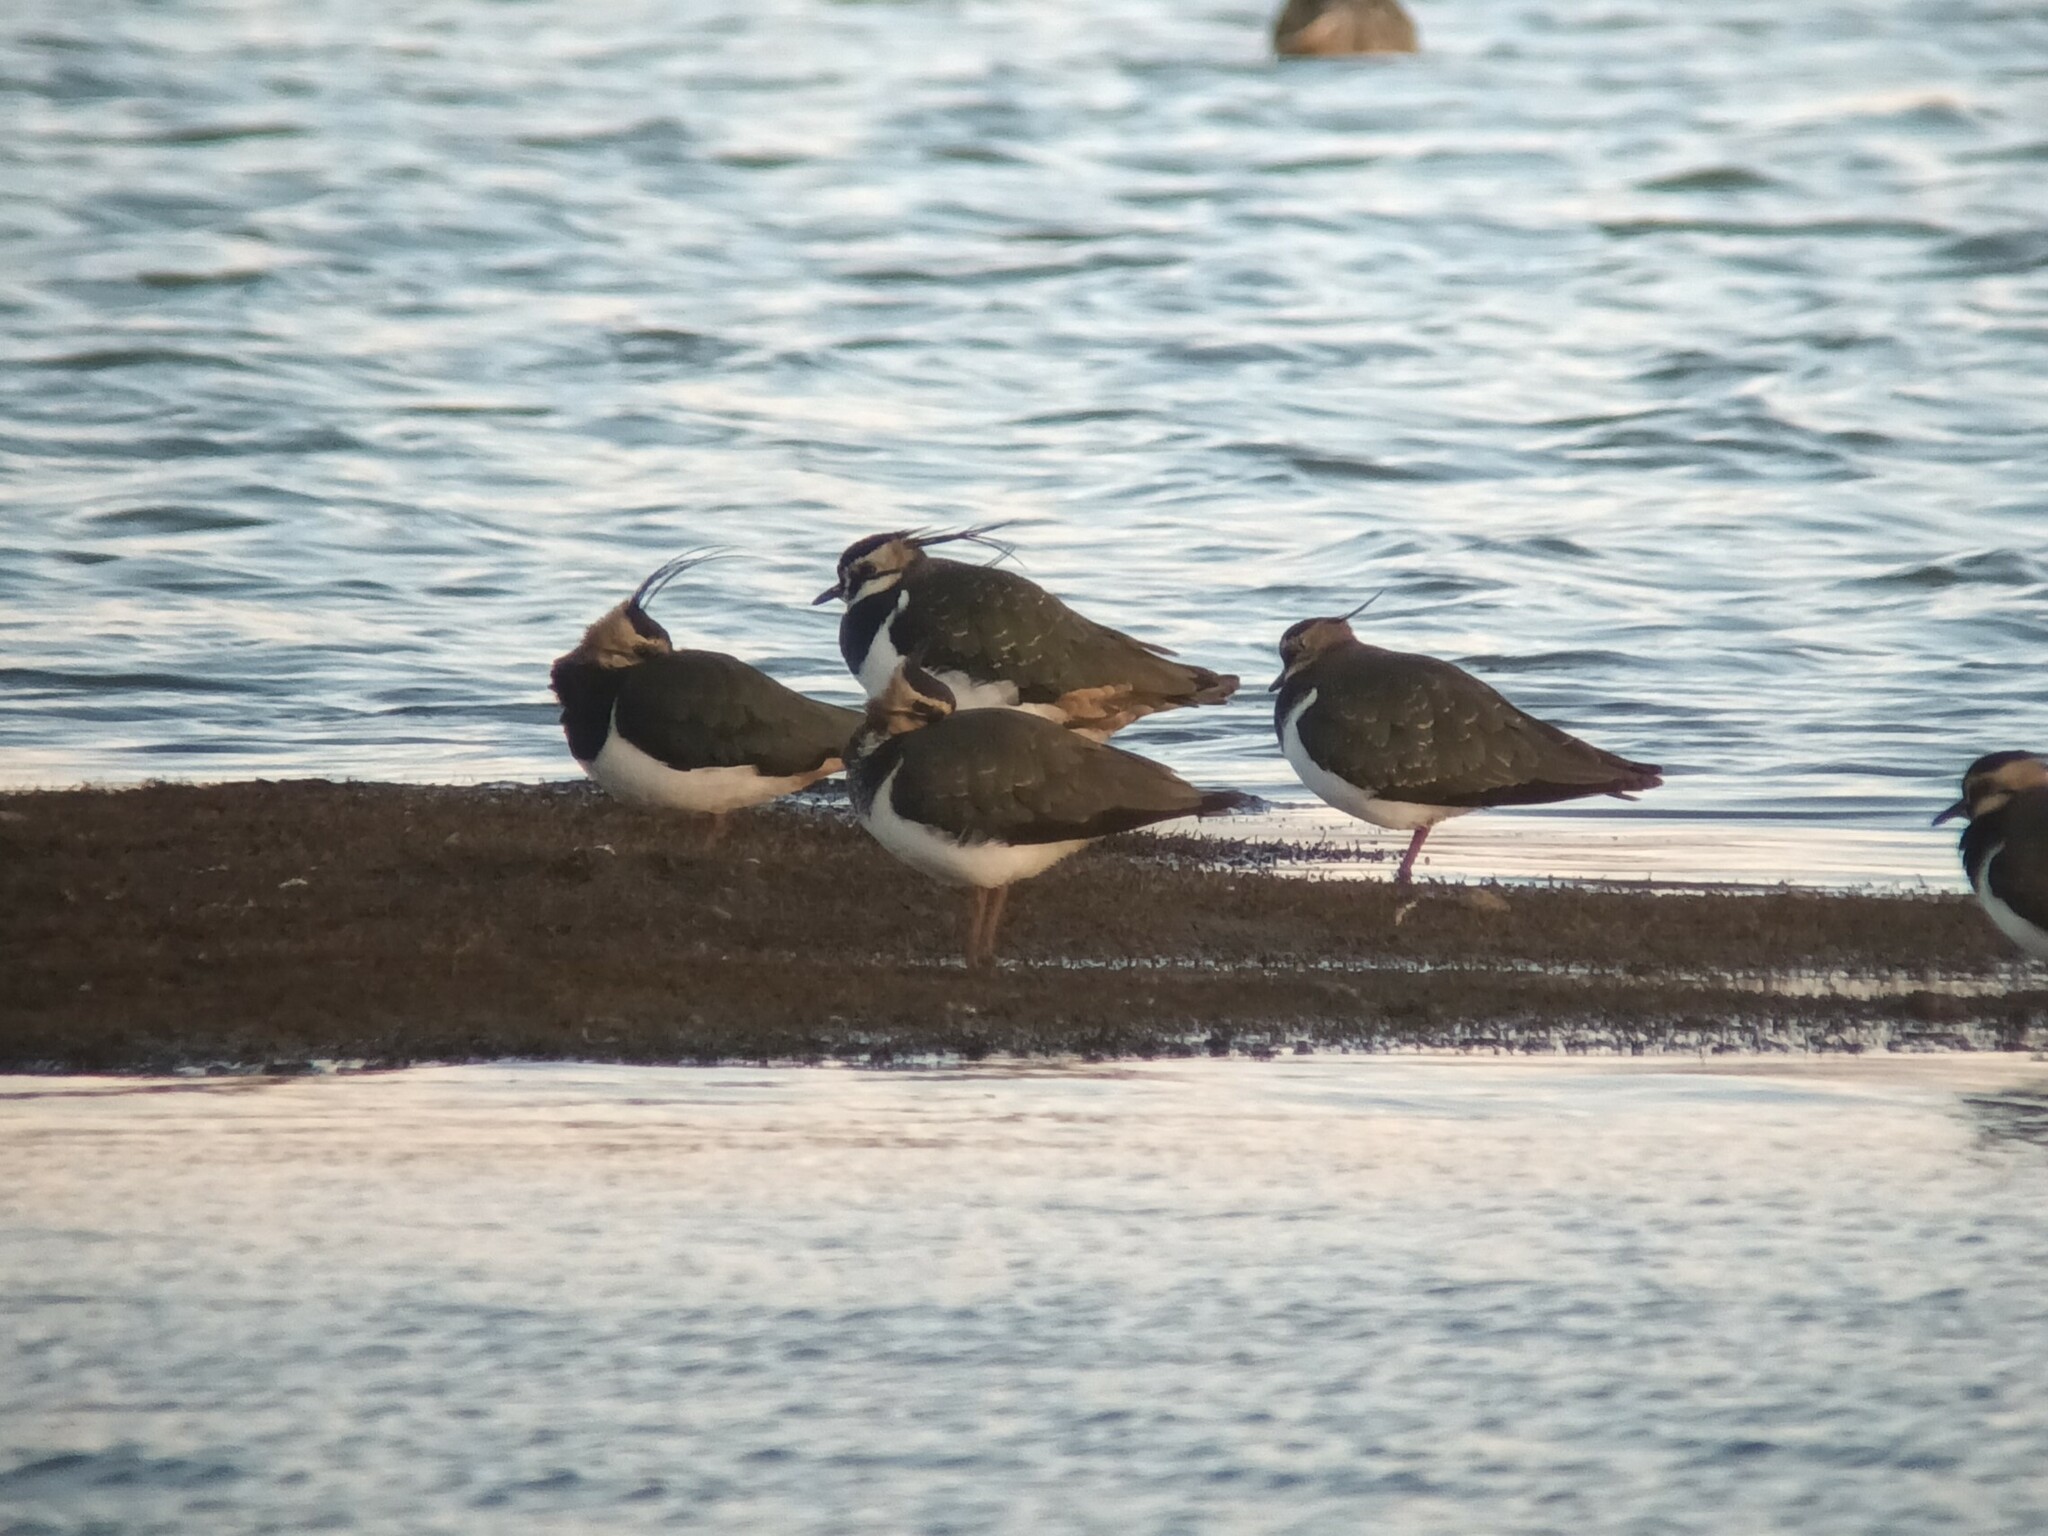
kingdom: Animalia
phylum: Chordata
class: Aves
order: Charadriiformes
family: Charadriidae
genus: Vanellus
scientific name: Vanellus vanellus
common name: Northern lapwing
